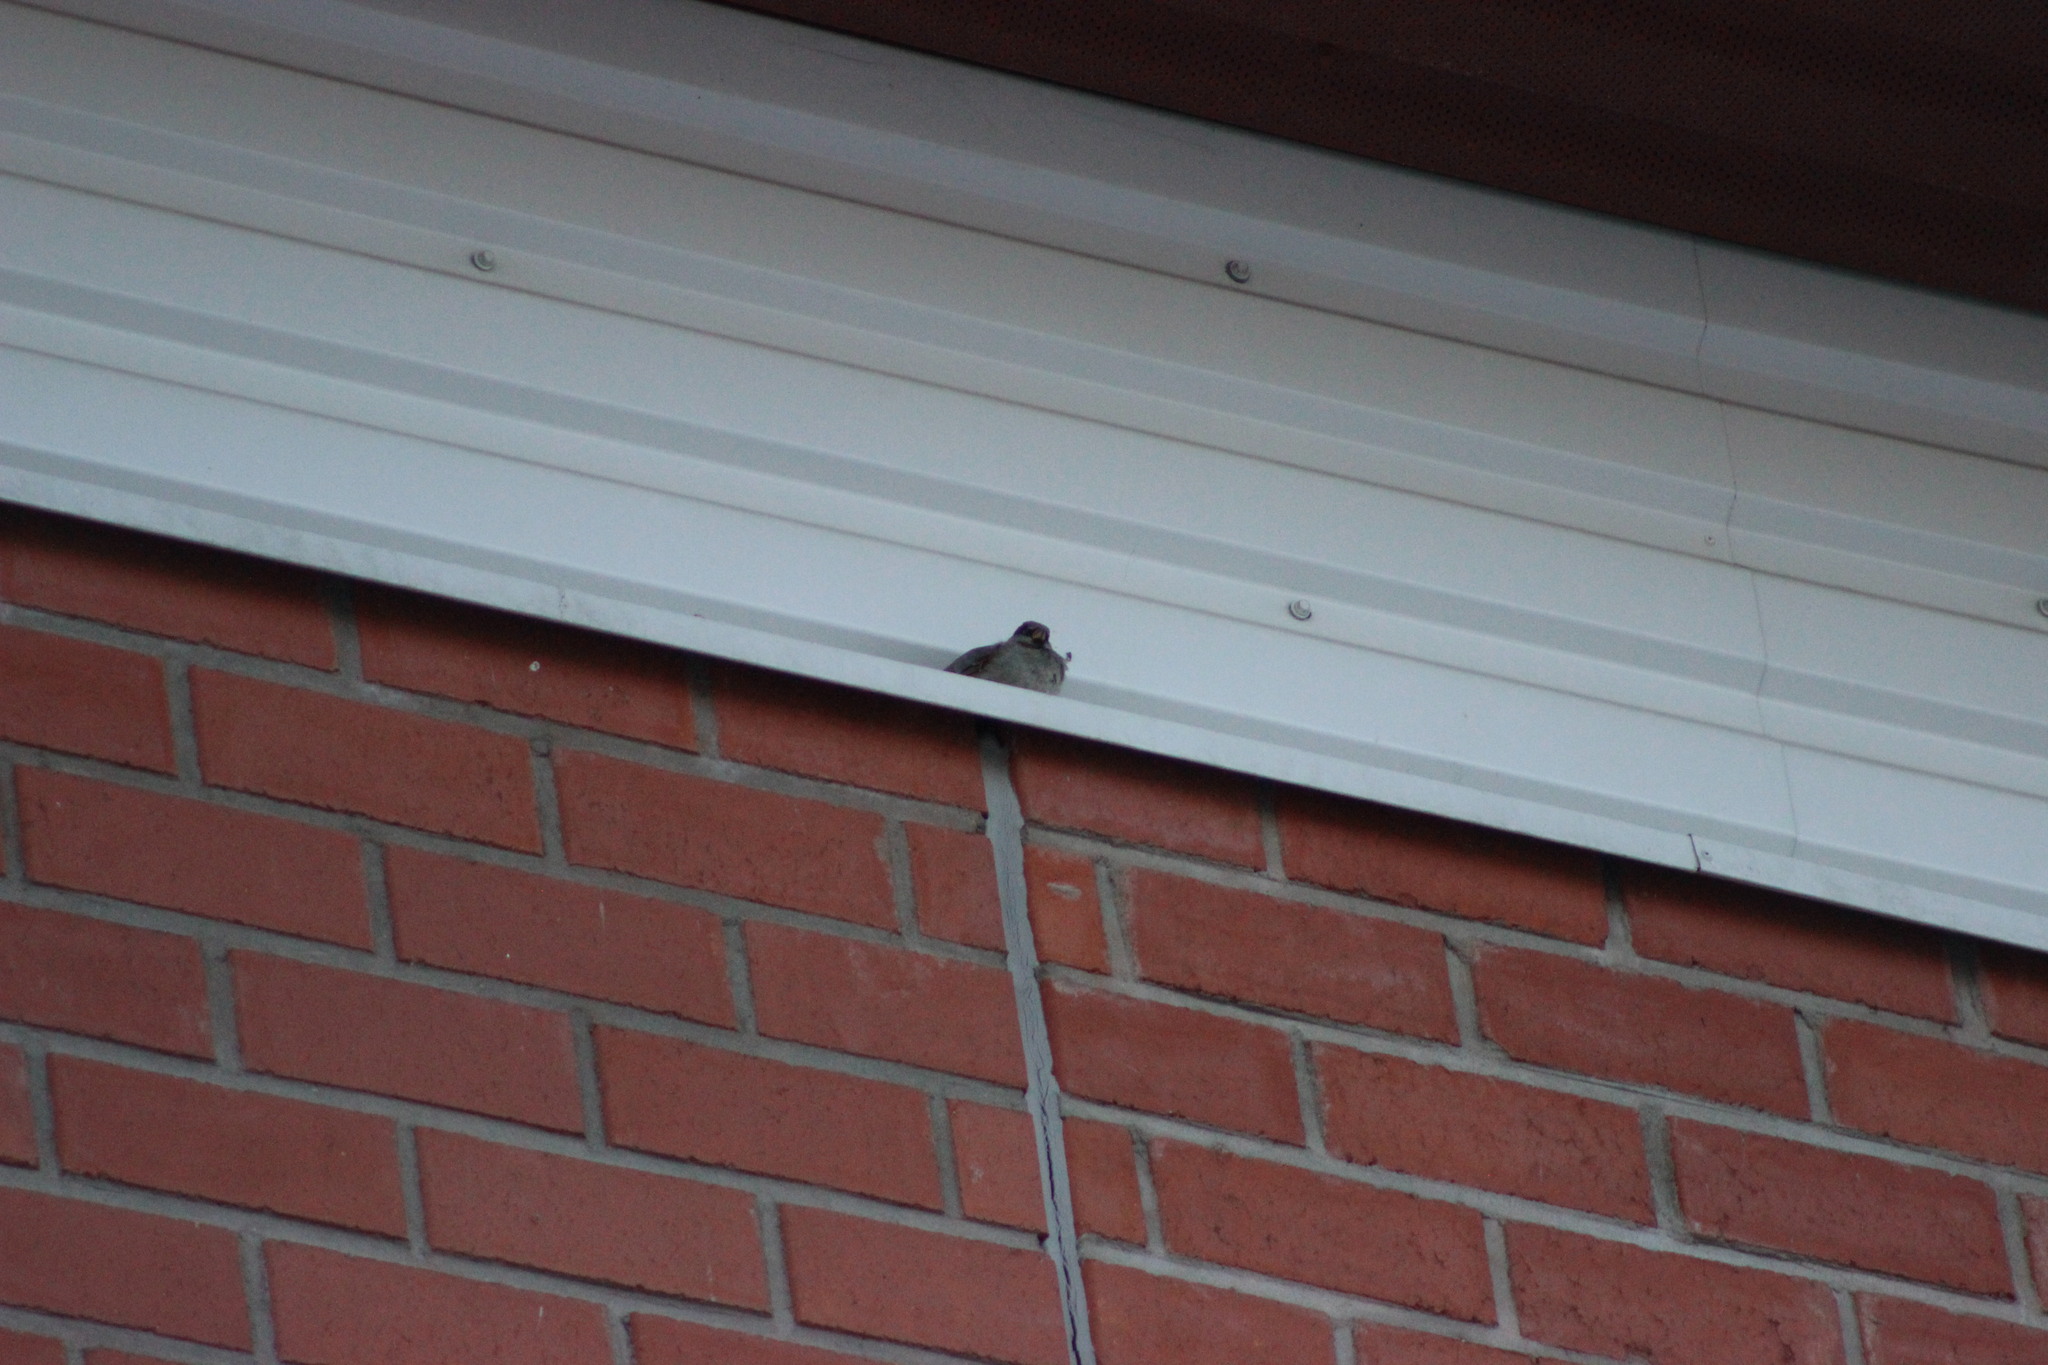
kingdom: Animalia
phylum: Chordata
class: Aves
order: Passeriformes
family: Passeridae
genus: Passer
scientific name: Passer domesticus
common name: House sparrow
